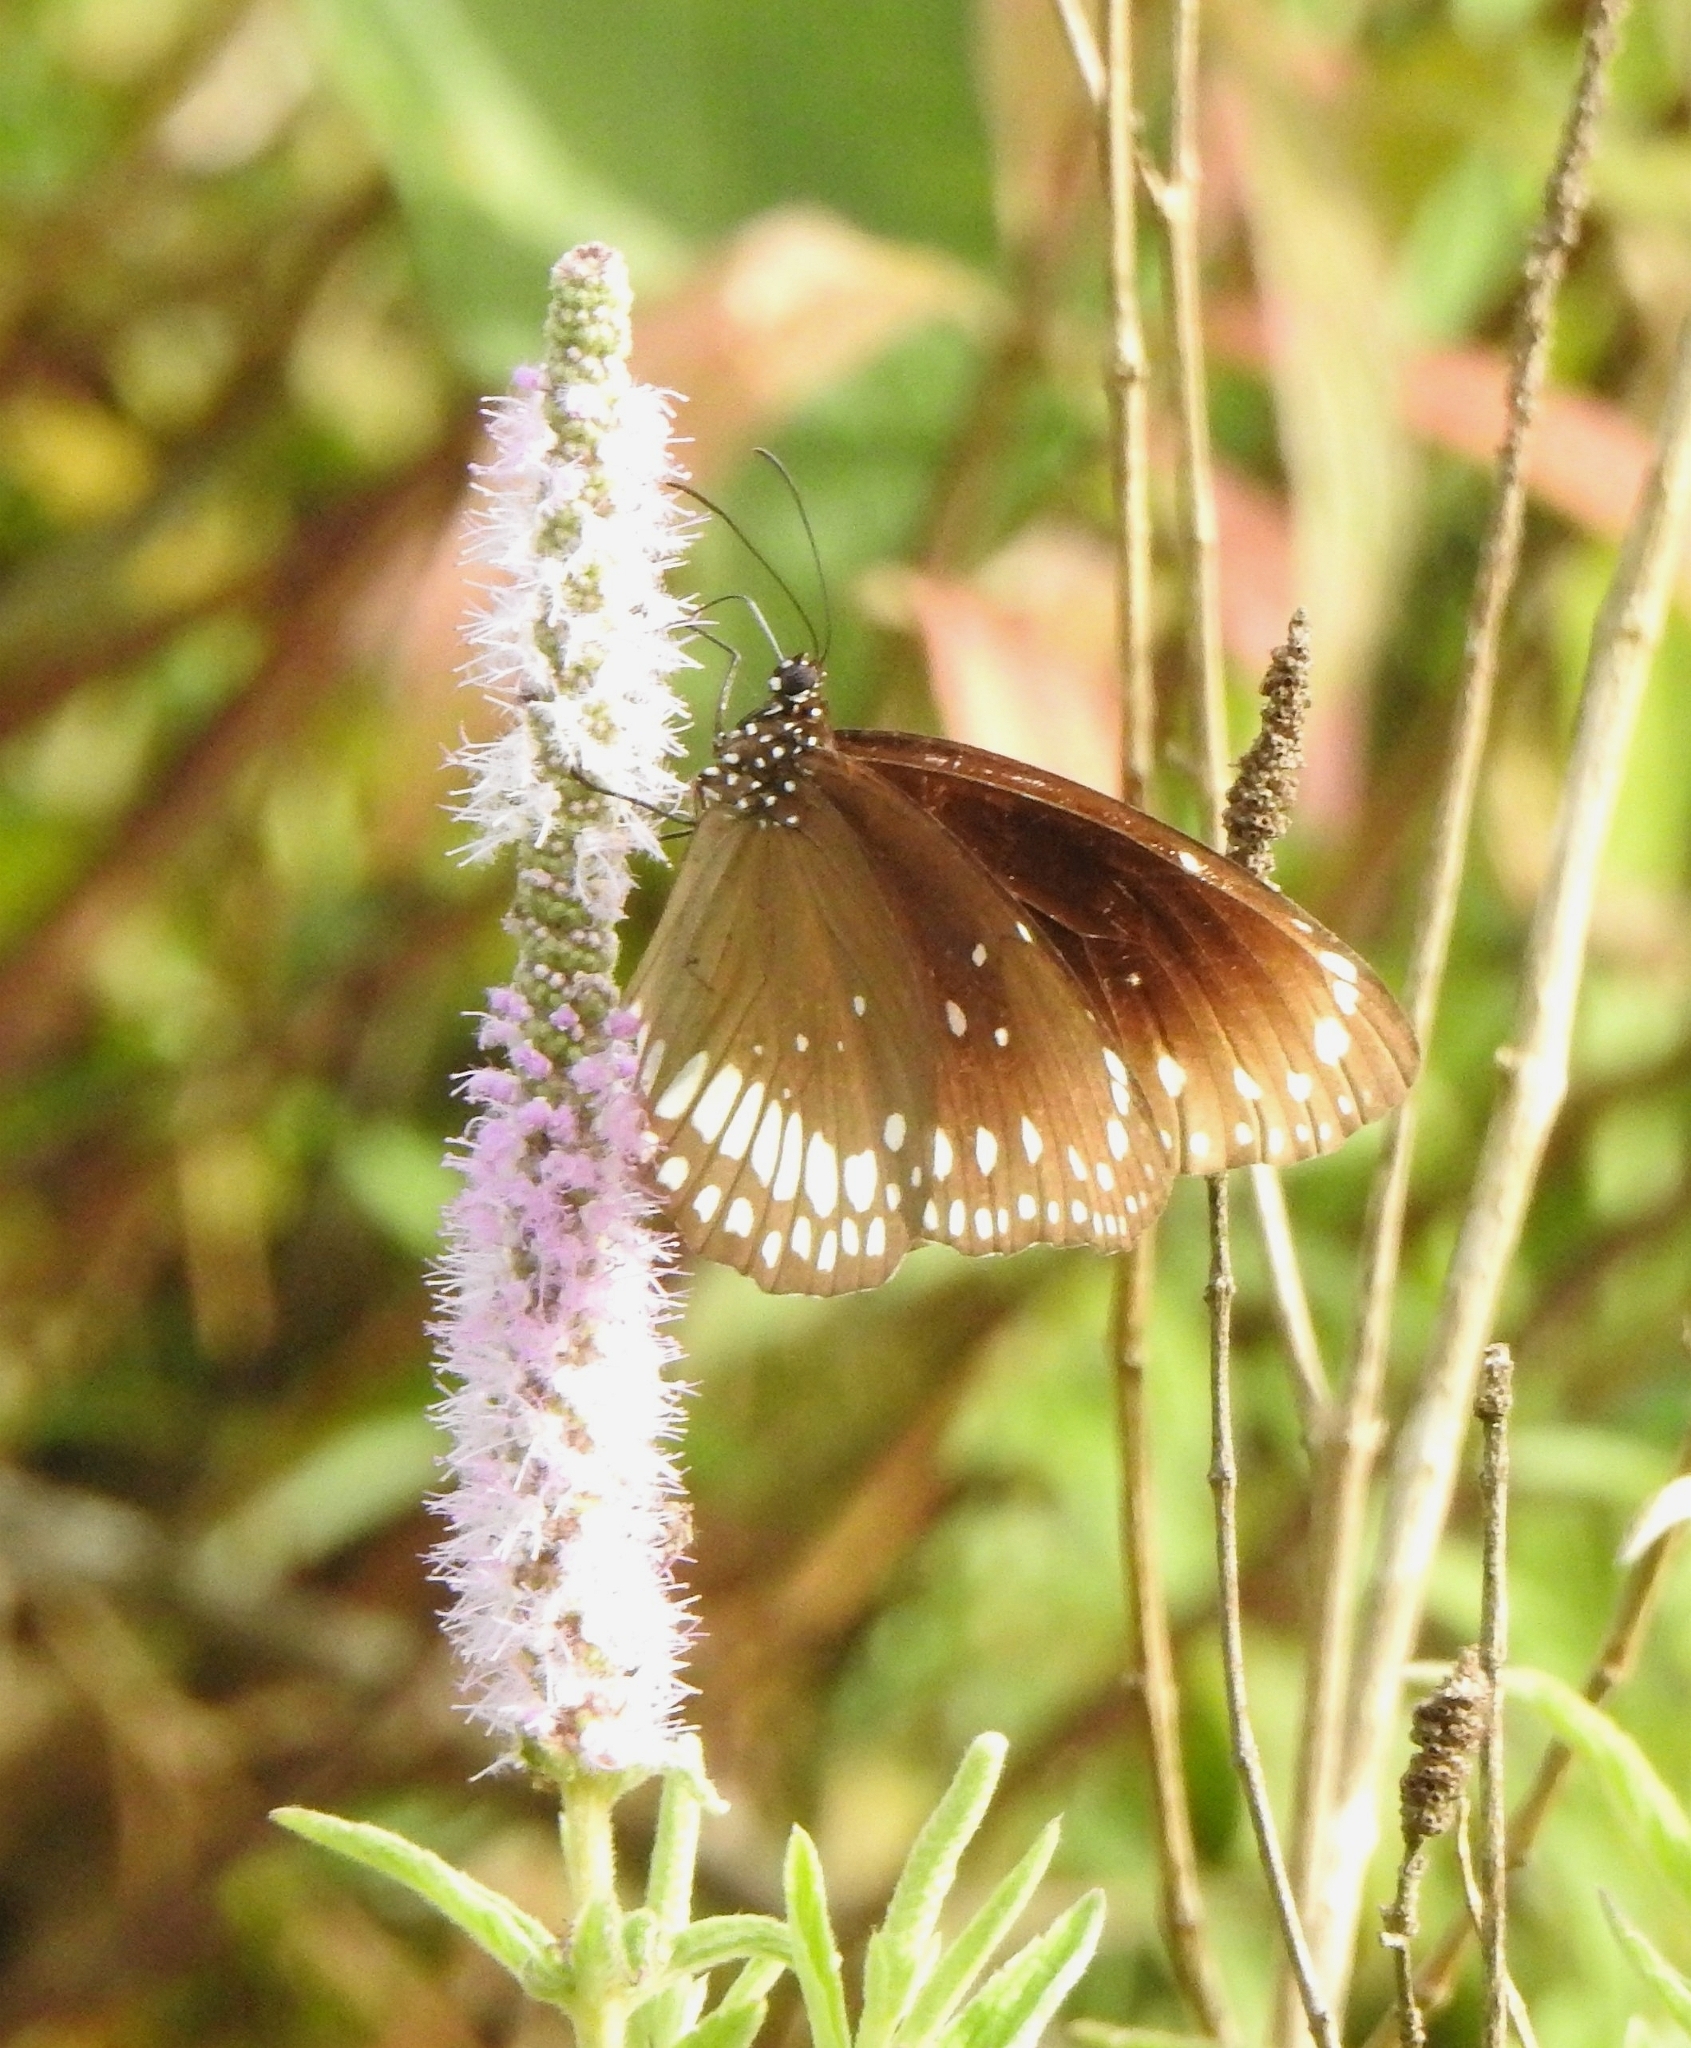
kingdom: Animalia
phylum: Arthropoda
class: Insecta
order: Lepidoptera
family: Nymphalidae
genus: Euploea
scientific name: Euploea core
